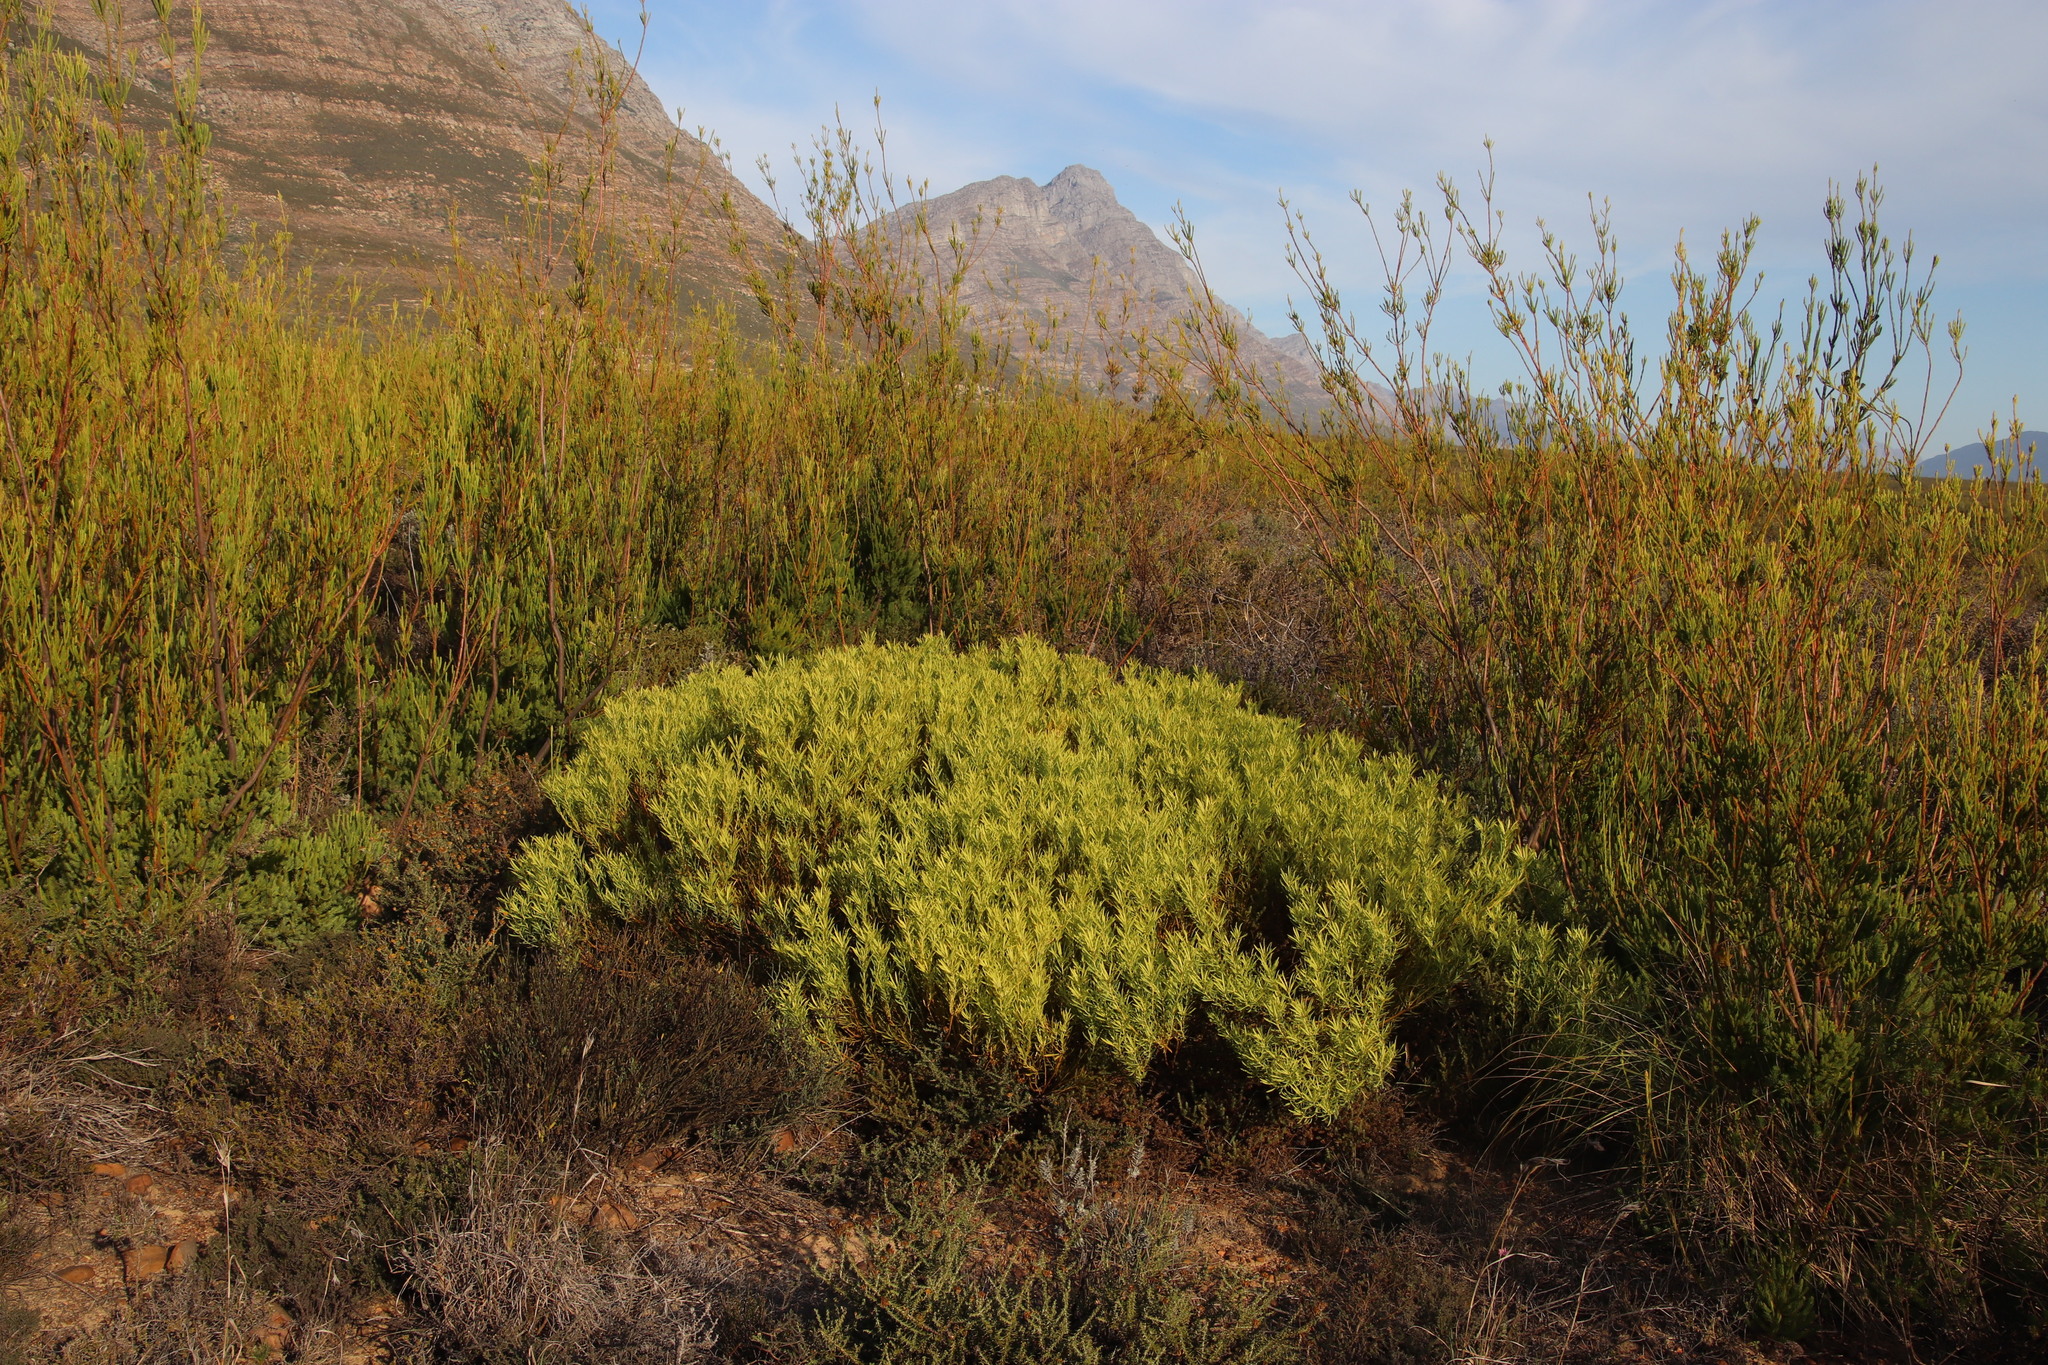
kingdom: Plantae
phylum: Tracheophyta
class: Magnoliopsida
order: Proteales
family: Proteaceae
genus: Leucadendron
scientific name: Leucadendron salignum
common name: Common sunshine conebush
